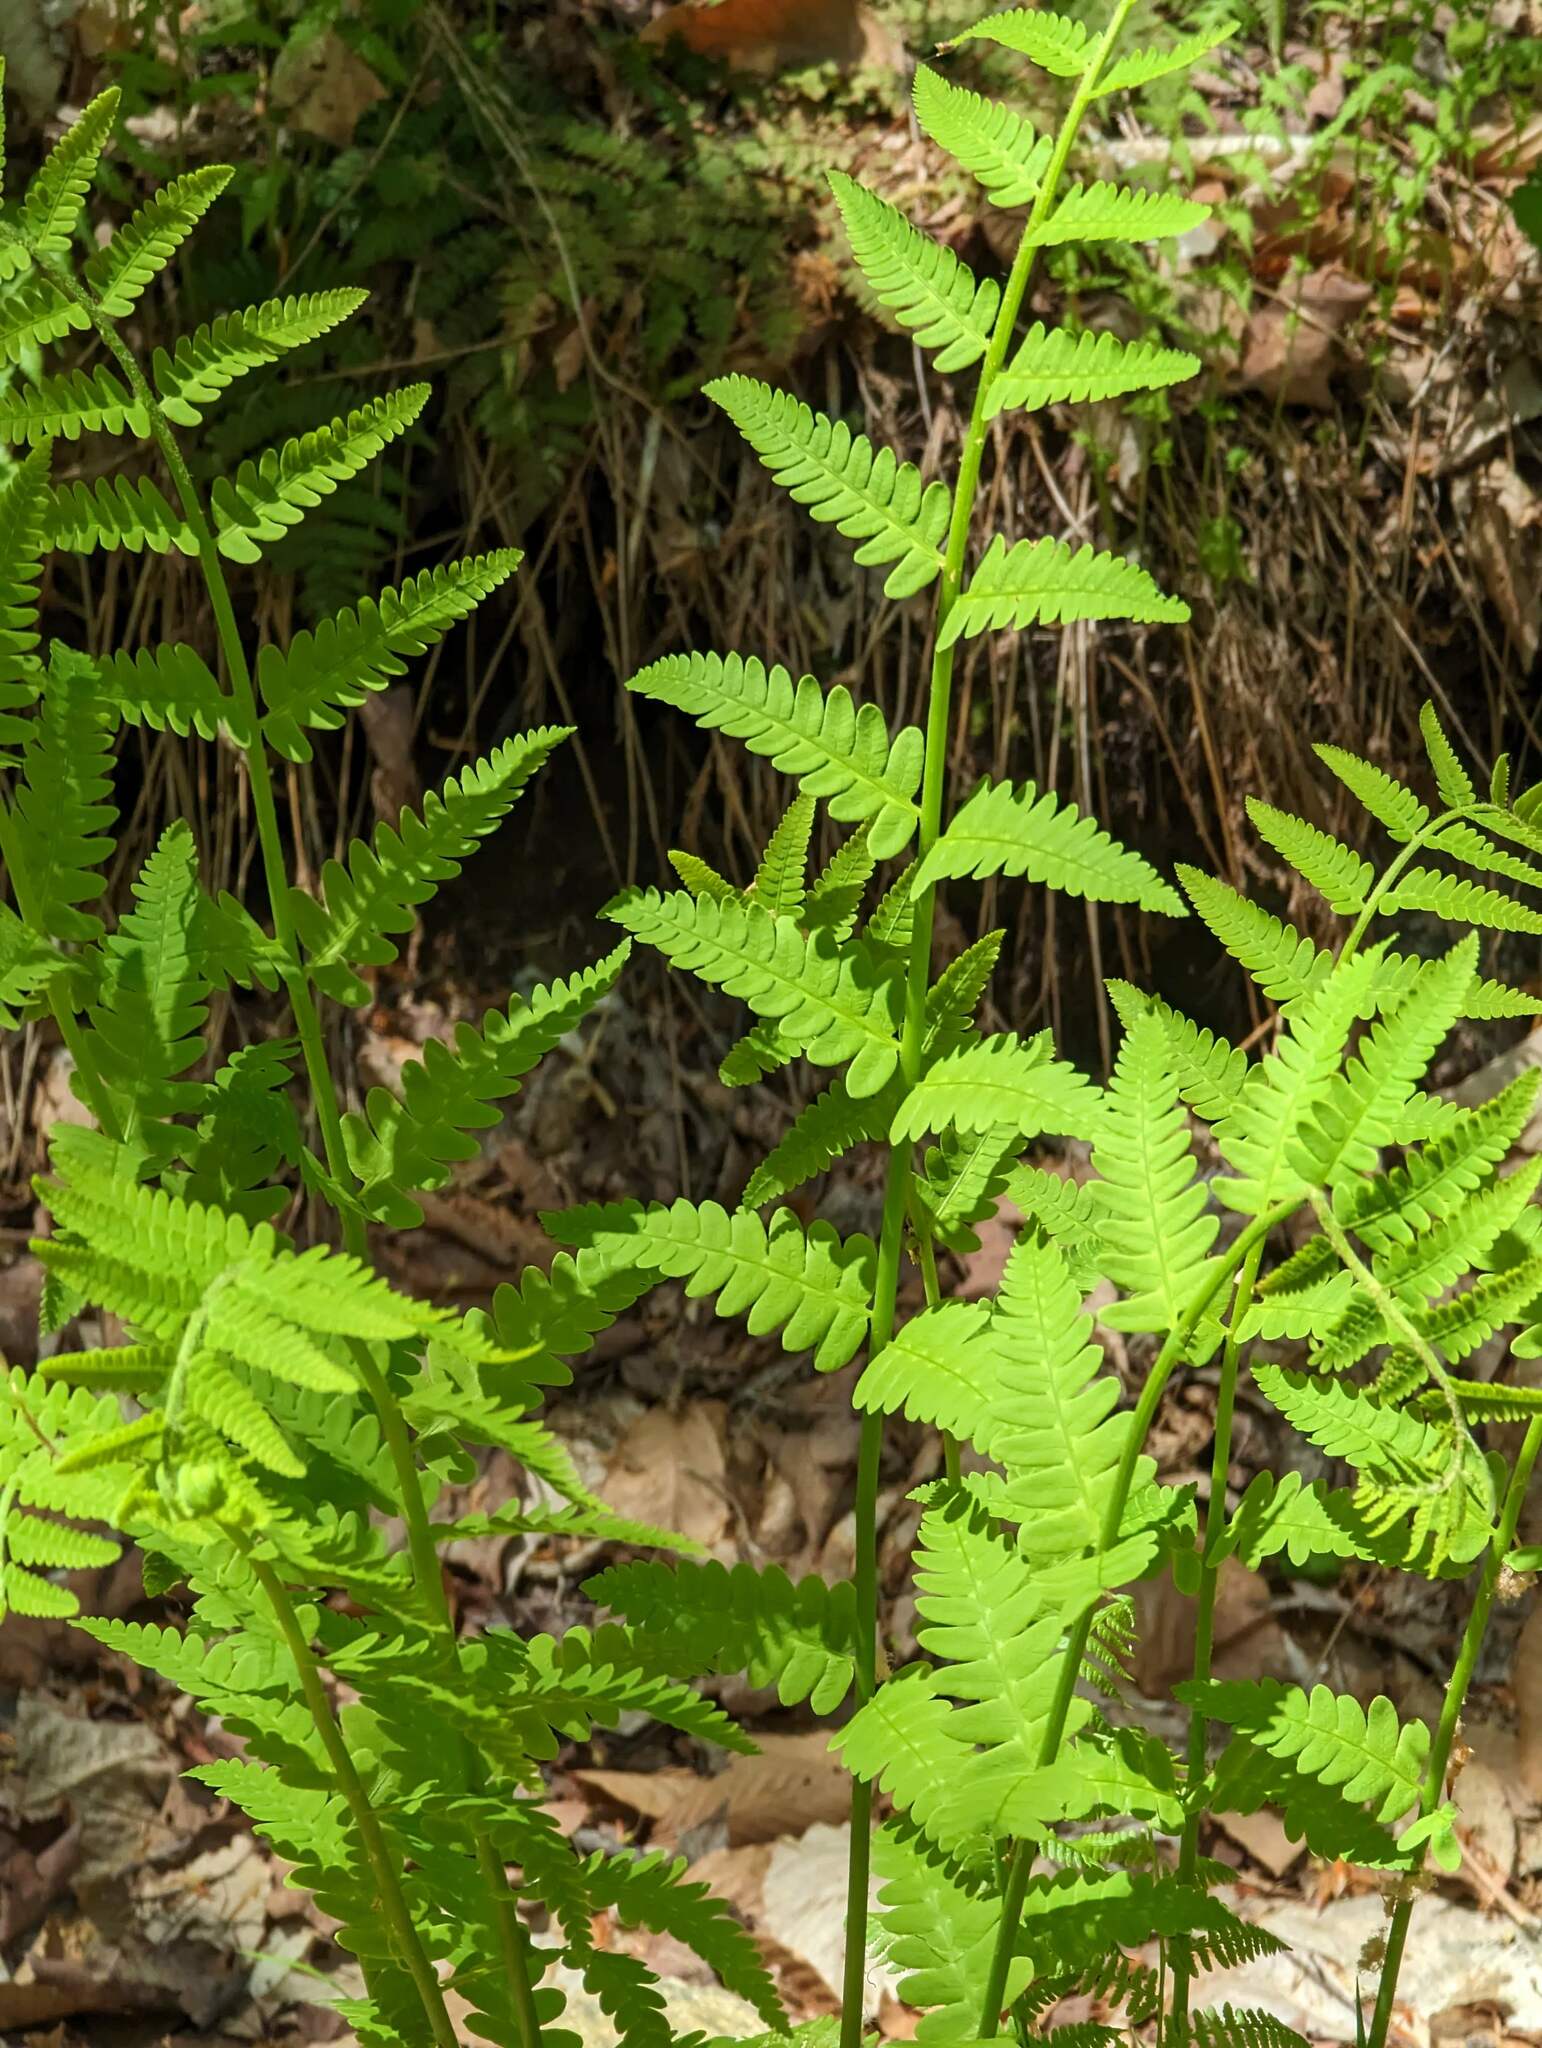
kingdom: Plantae
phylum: Tracheophyta
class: Polypodiopsida
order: Osmundales
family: Osmundaceae
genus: Claytosmunda
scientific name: Claytosmunda claytoniana
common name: Clayton's fern
